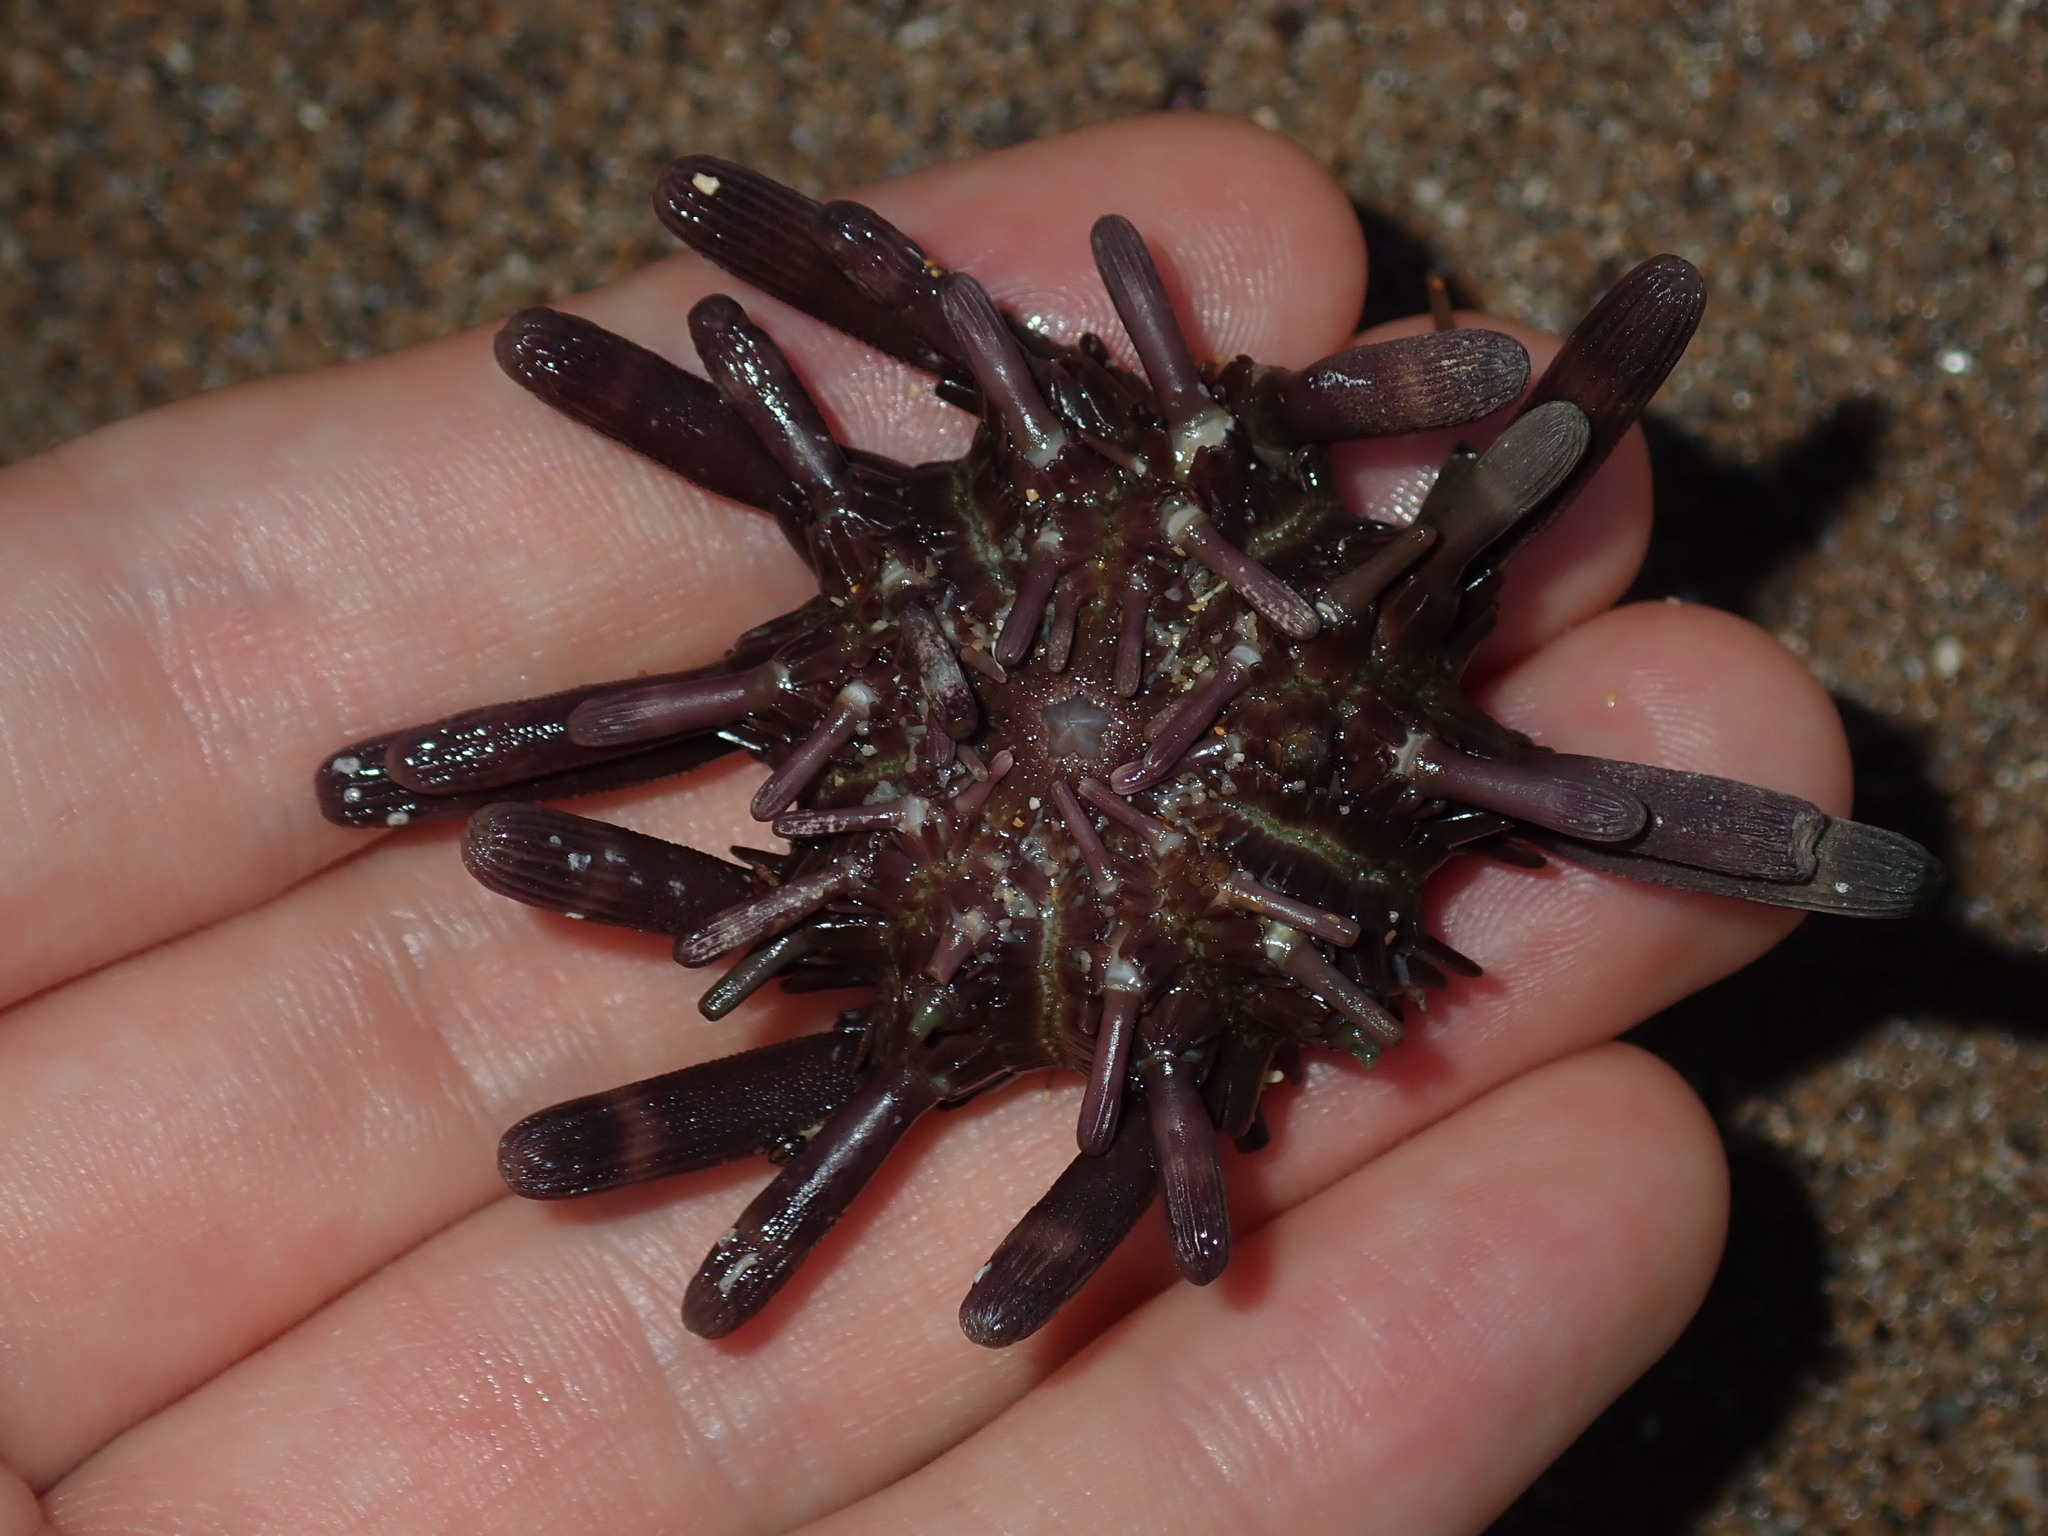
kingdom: Animalia
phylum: Echinodermata
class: Echinoidea
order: Cidaroida
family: Cidaridae
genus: Phyllacanthus
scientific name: Phyllacanthus parvispinus
